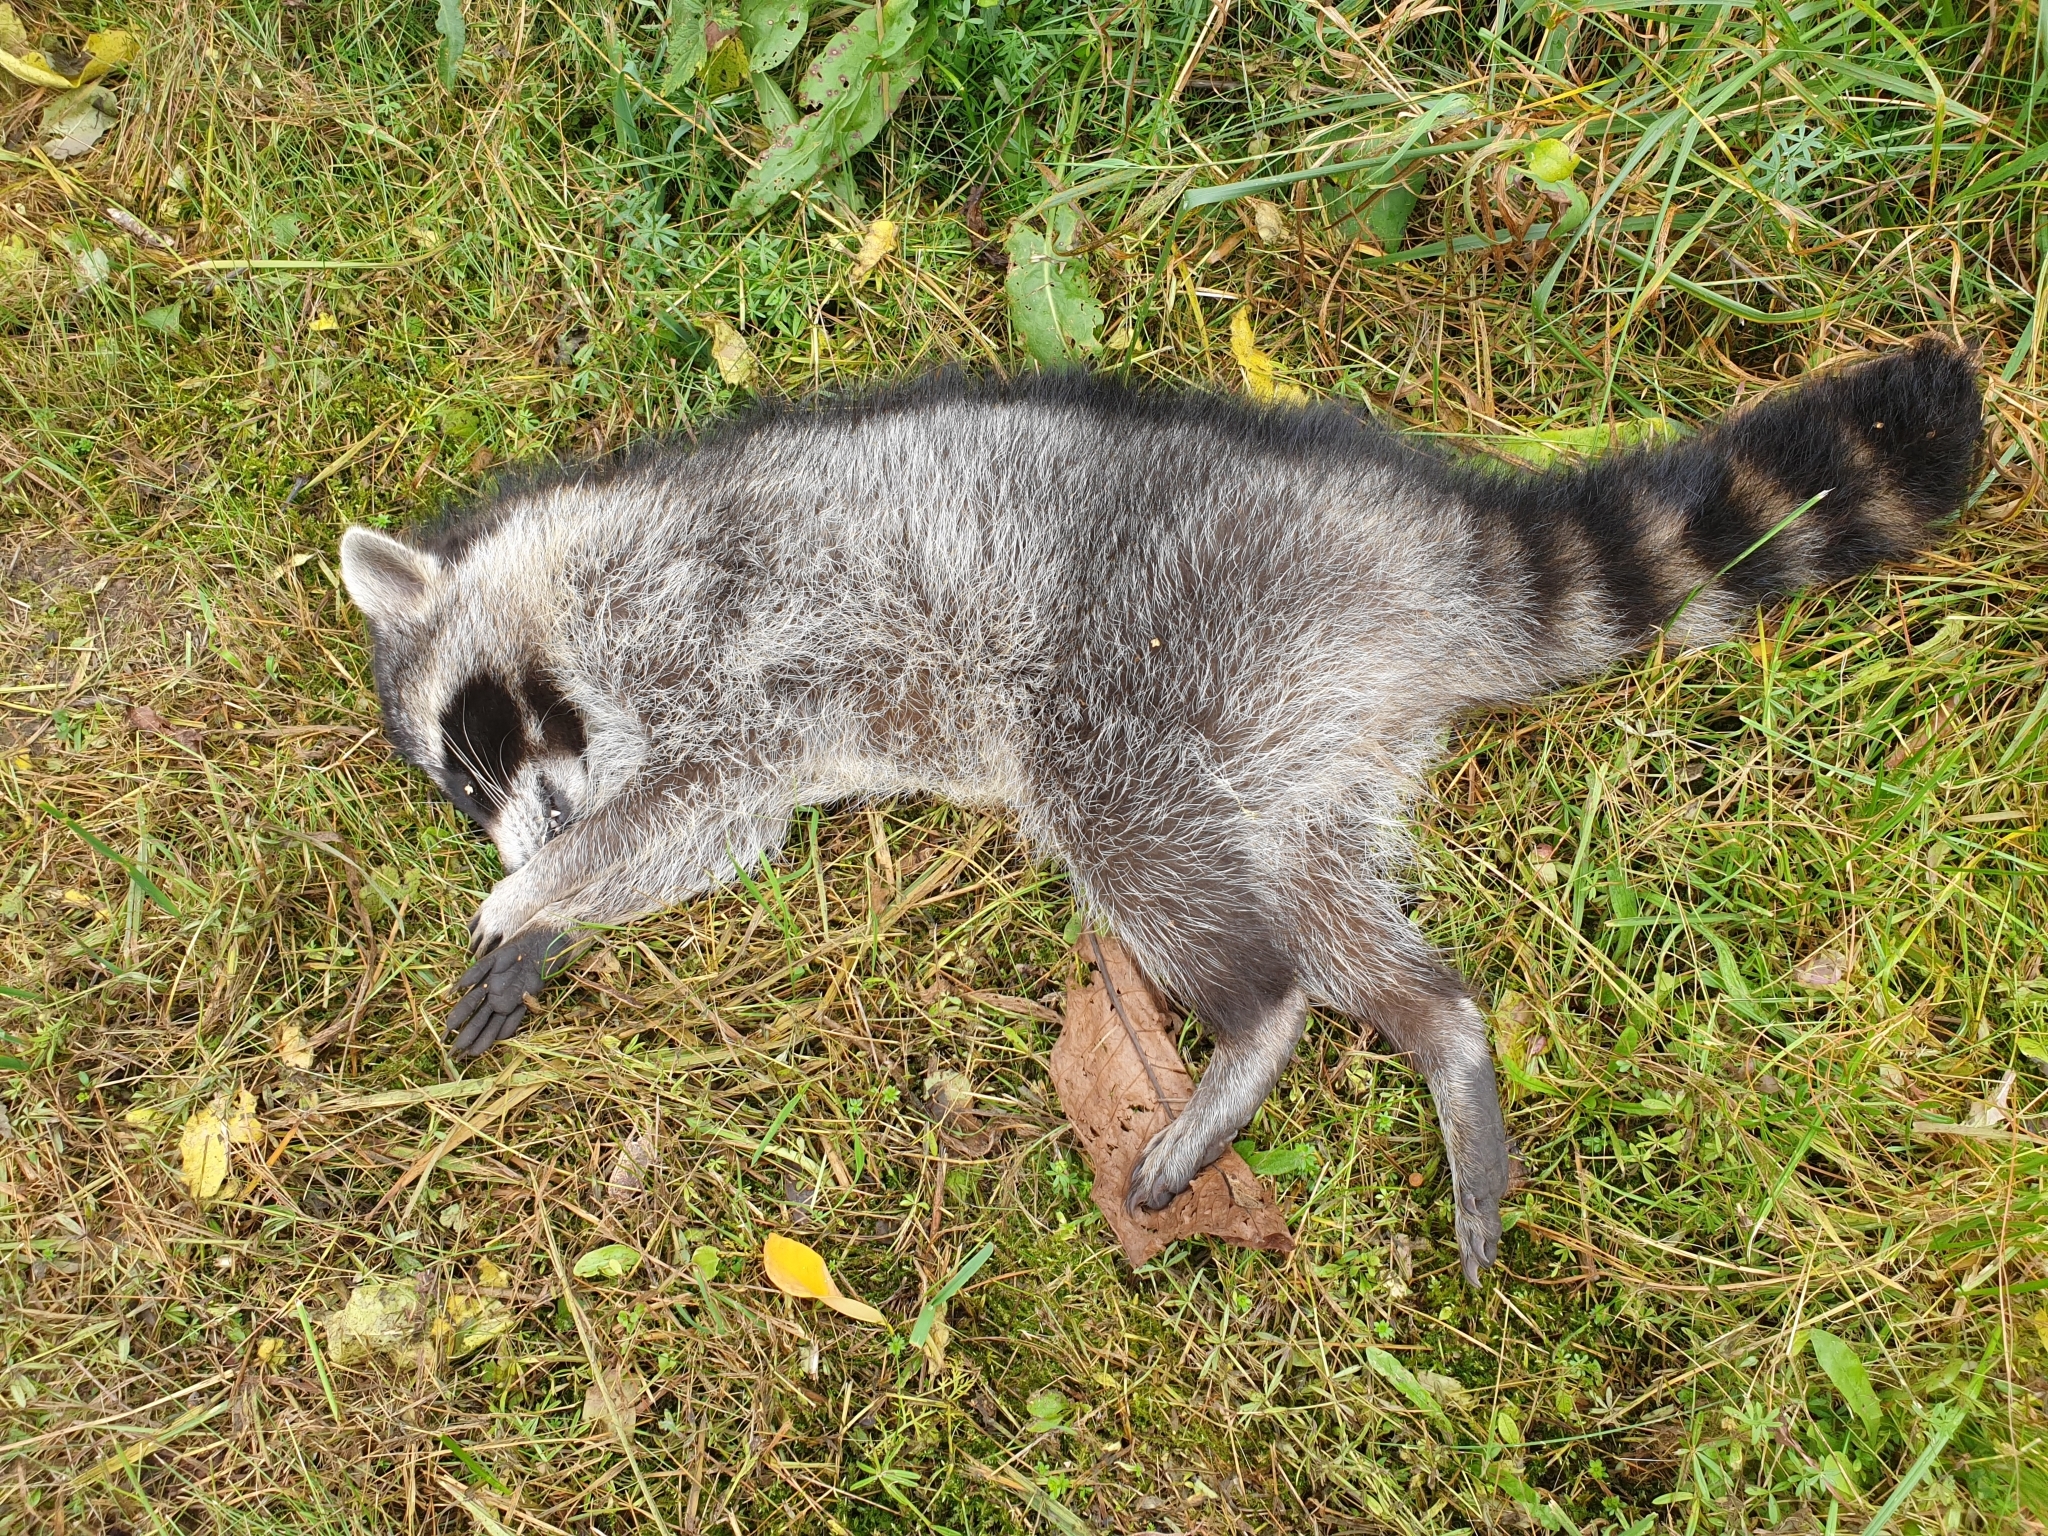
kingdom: Animalia
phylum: Chordata
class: Mammalia
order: Carnivora
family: Procyonidae
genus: Procyon
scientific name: Procyon lotor
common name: Raccoon
